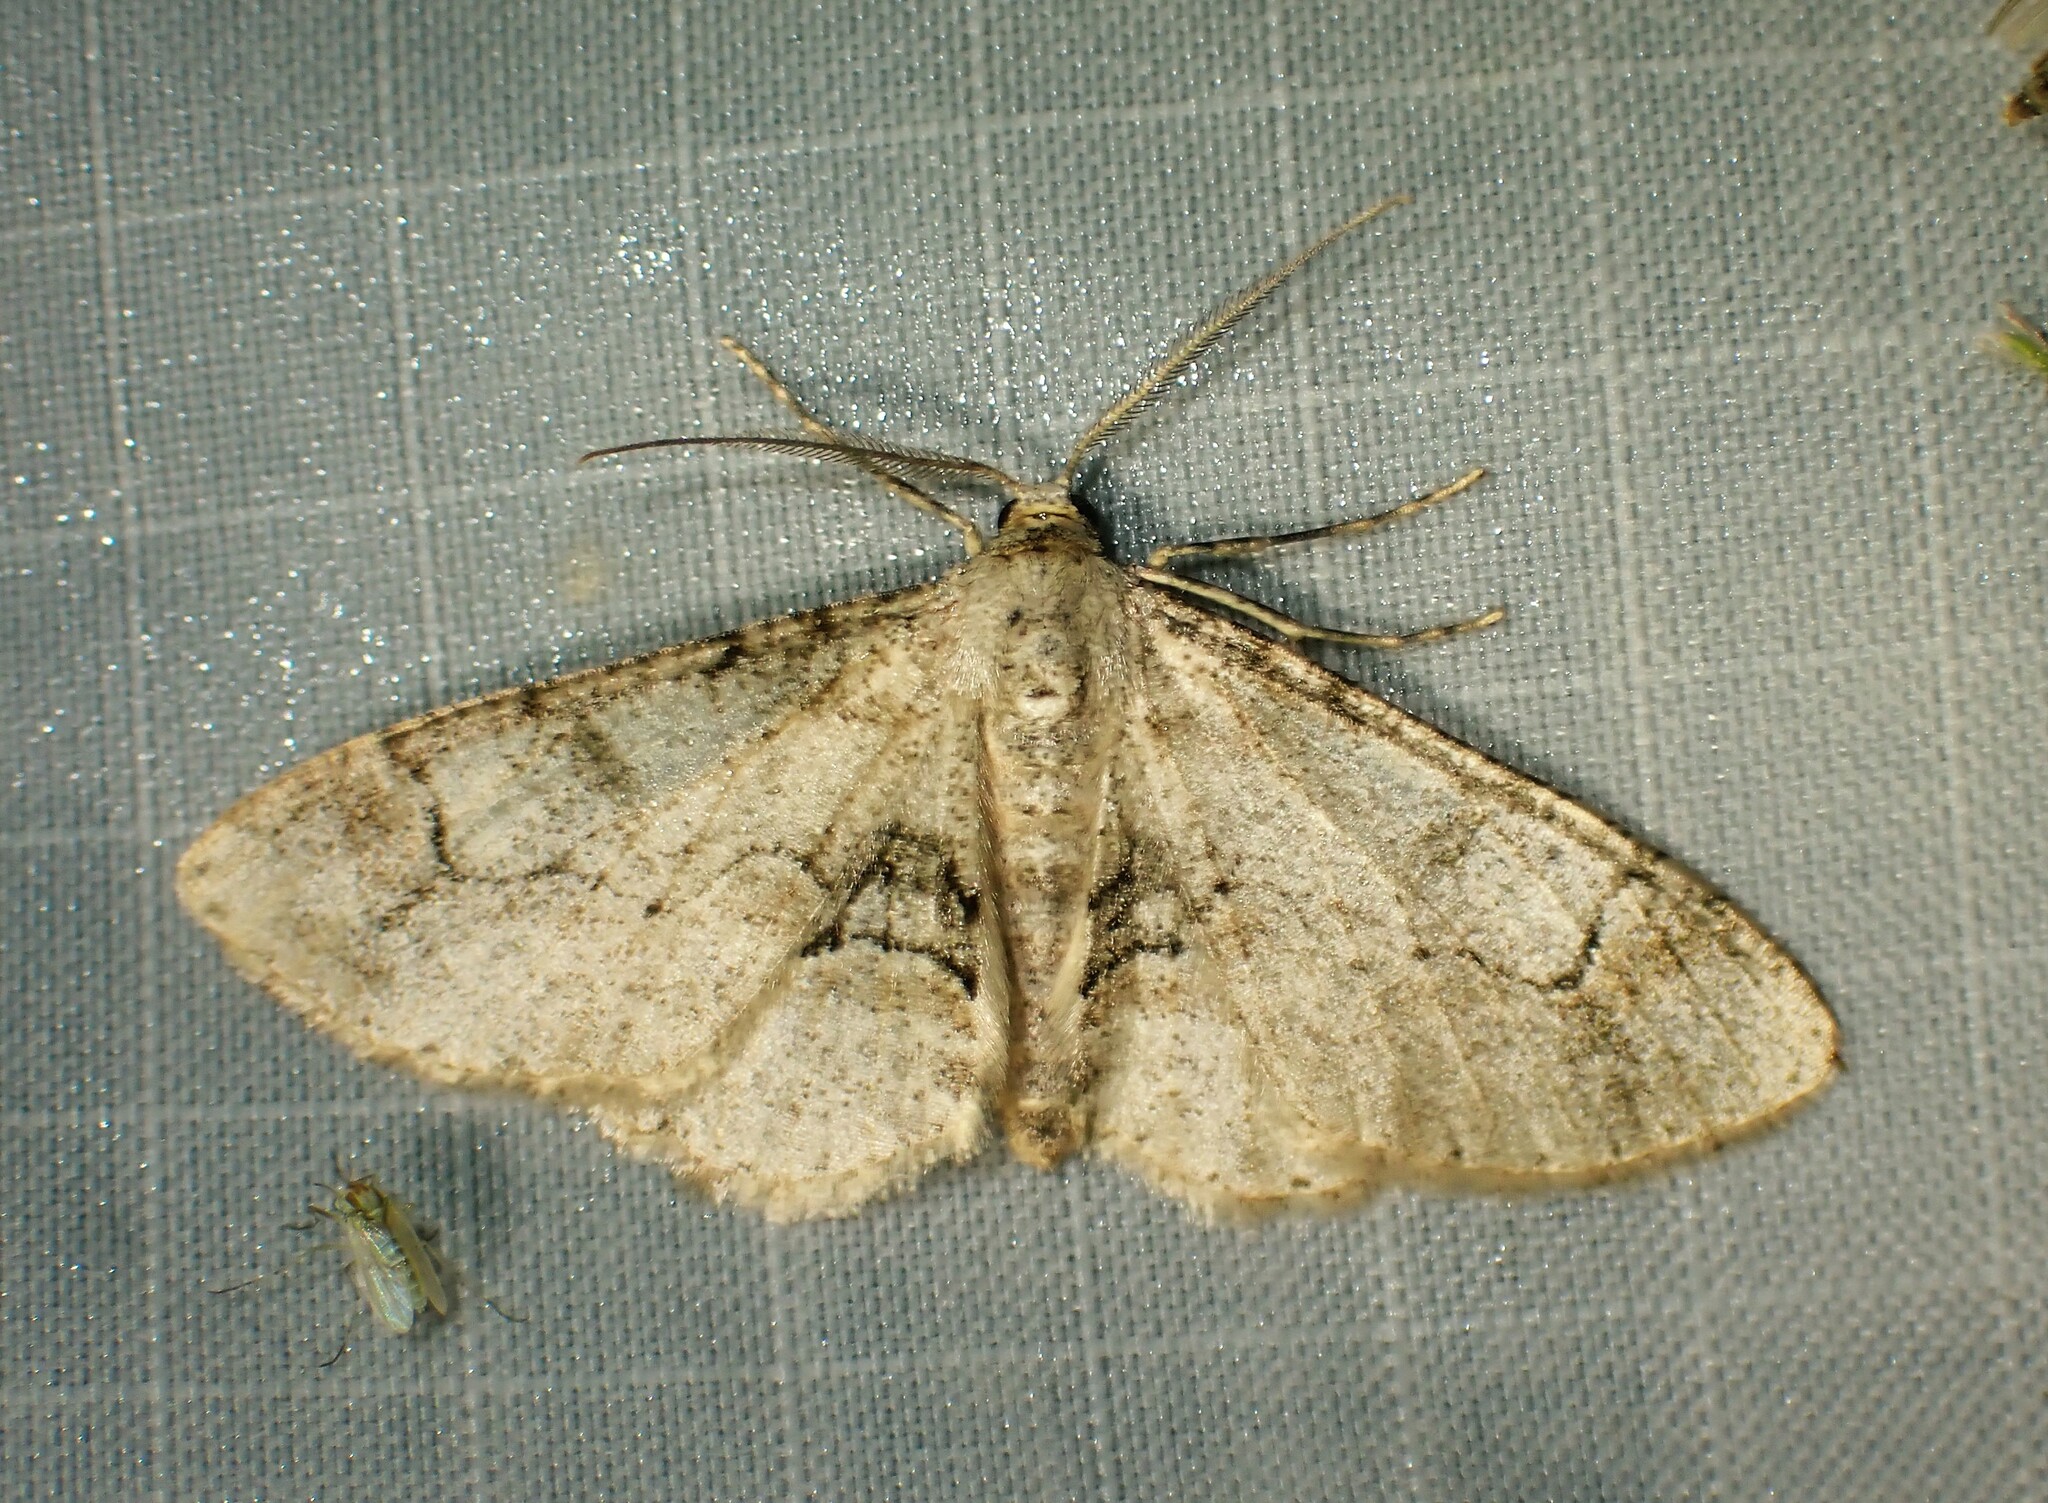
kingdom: Animalia
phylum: Arthropoda
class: Insecta
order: Lepidoptera
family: Geometridae
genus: Iridopsis
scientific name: Iridopsis larvaria
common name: Bent-line gray
